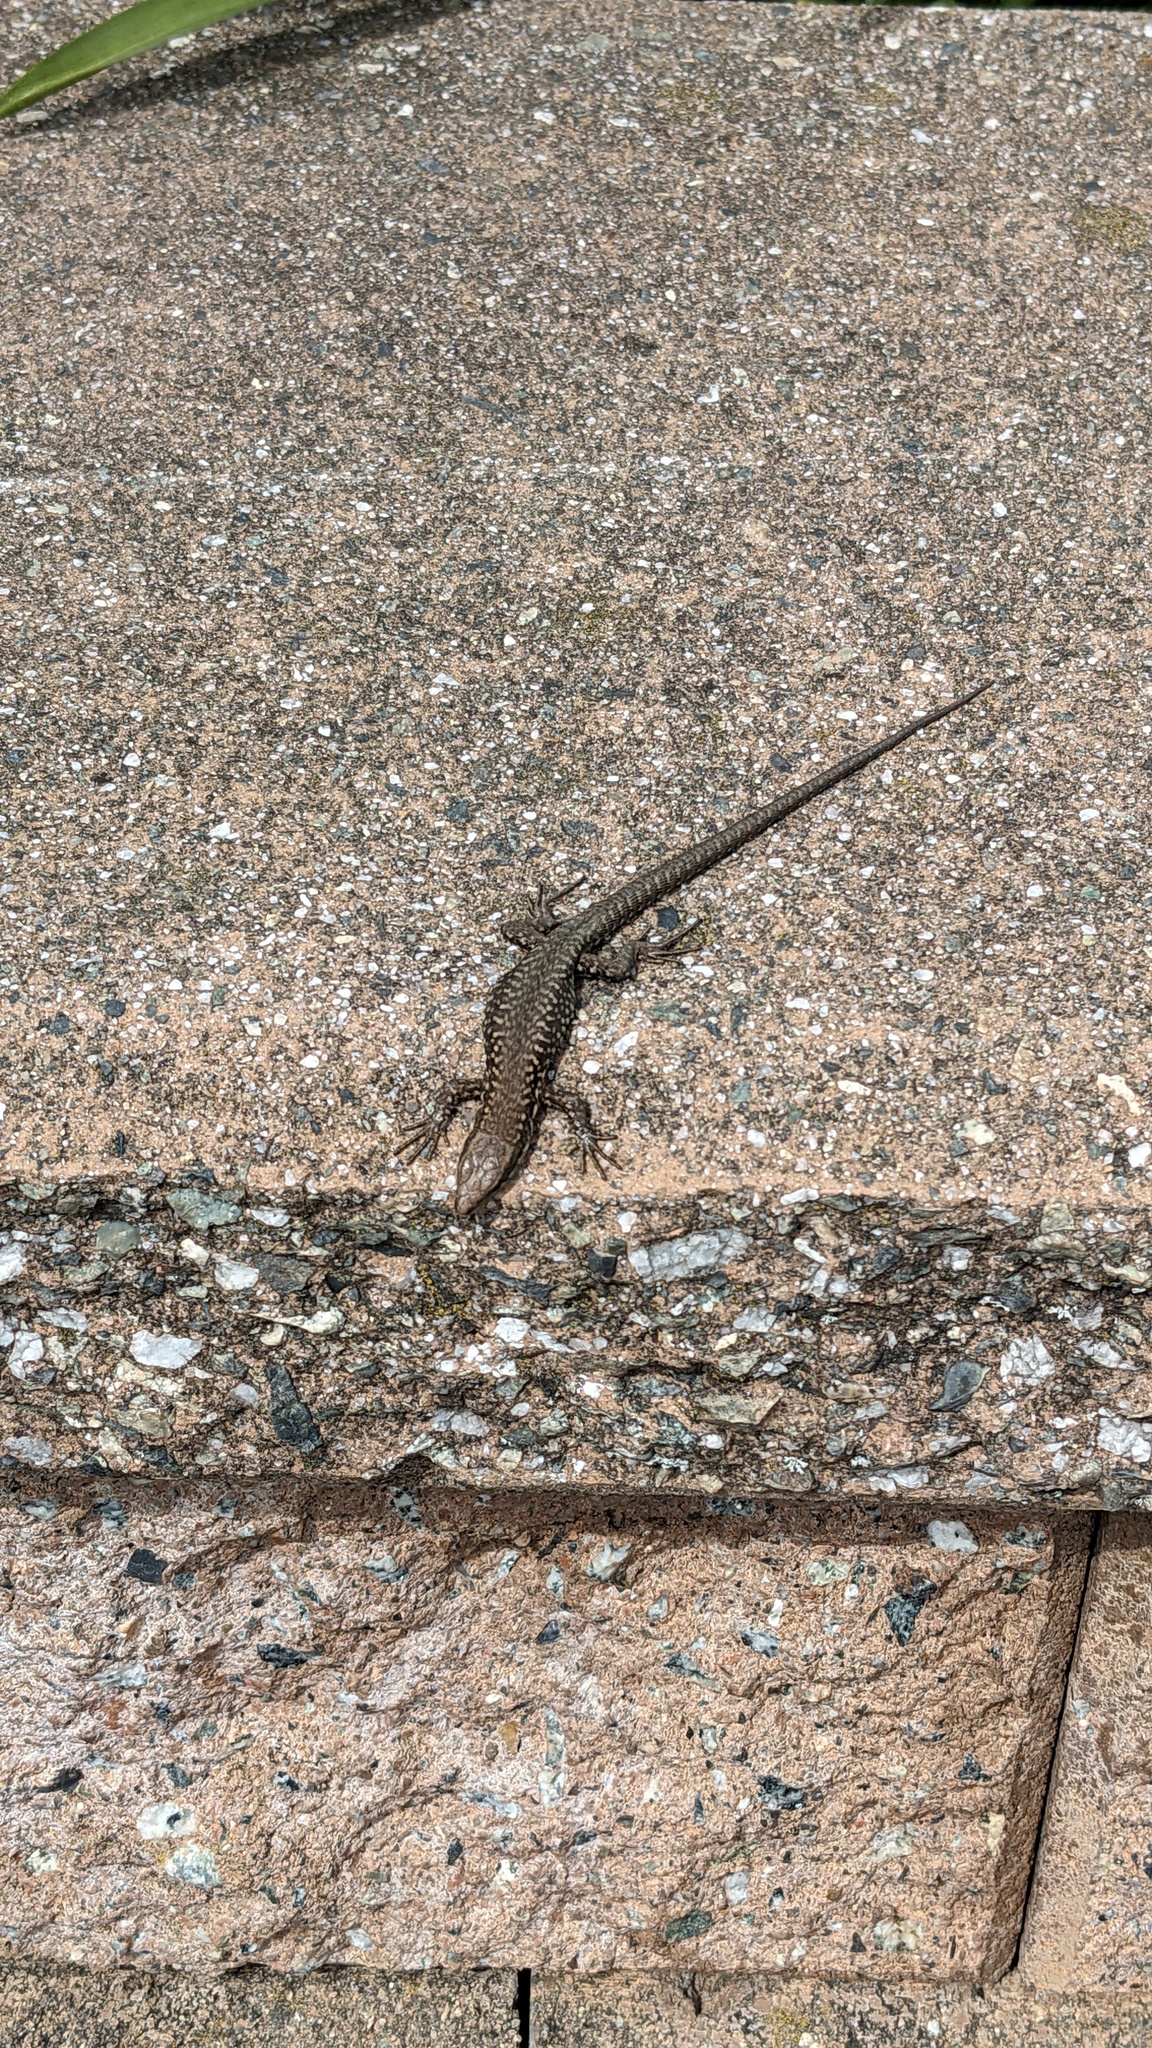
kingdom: Animalia
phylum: Chordata
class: Squamata
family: Lacertidae
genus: Podarcis
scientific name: Podarcis muralis
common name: Common wall lizard
